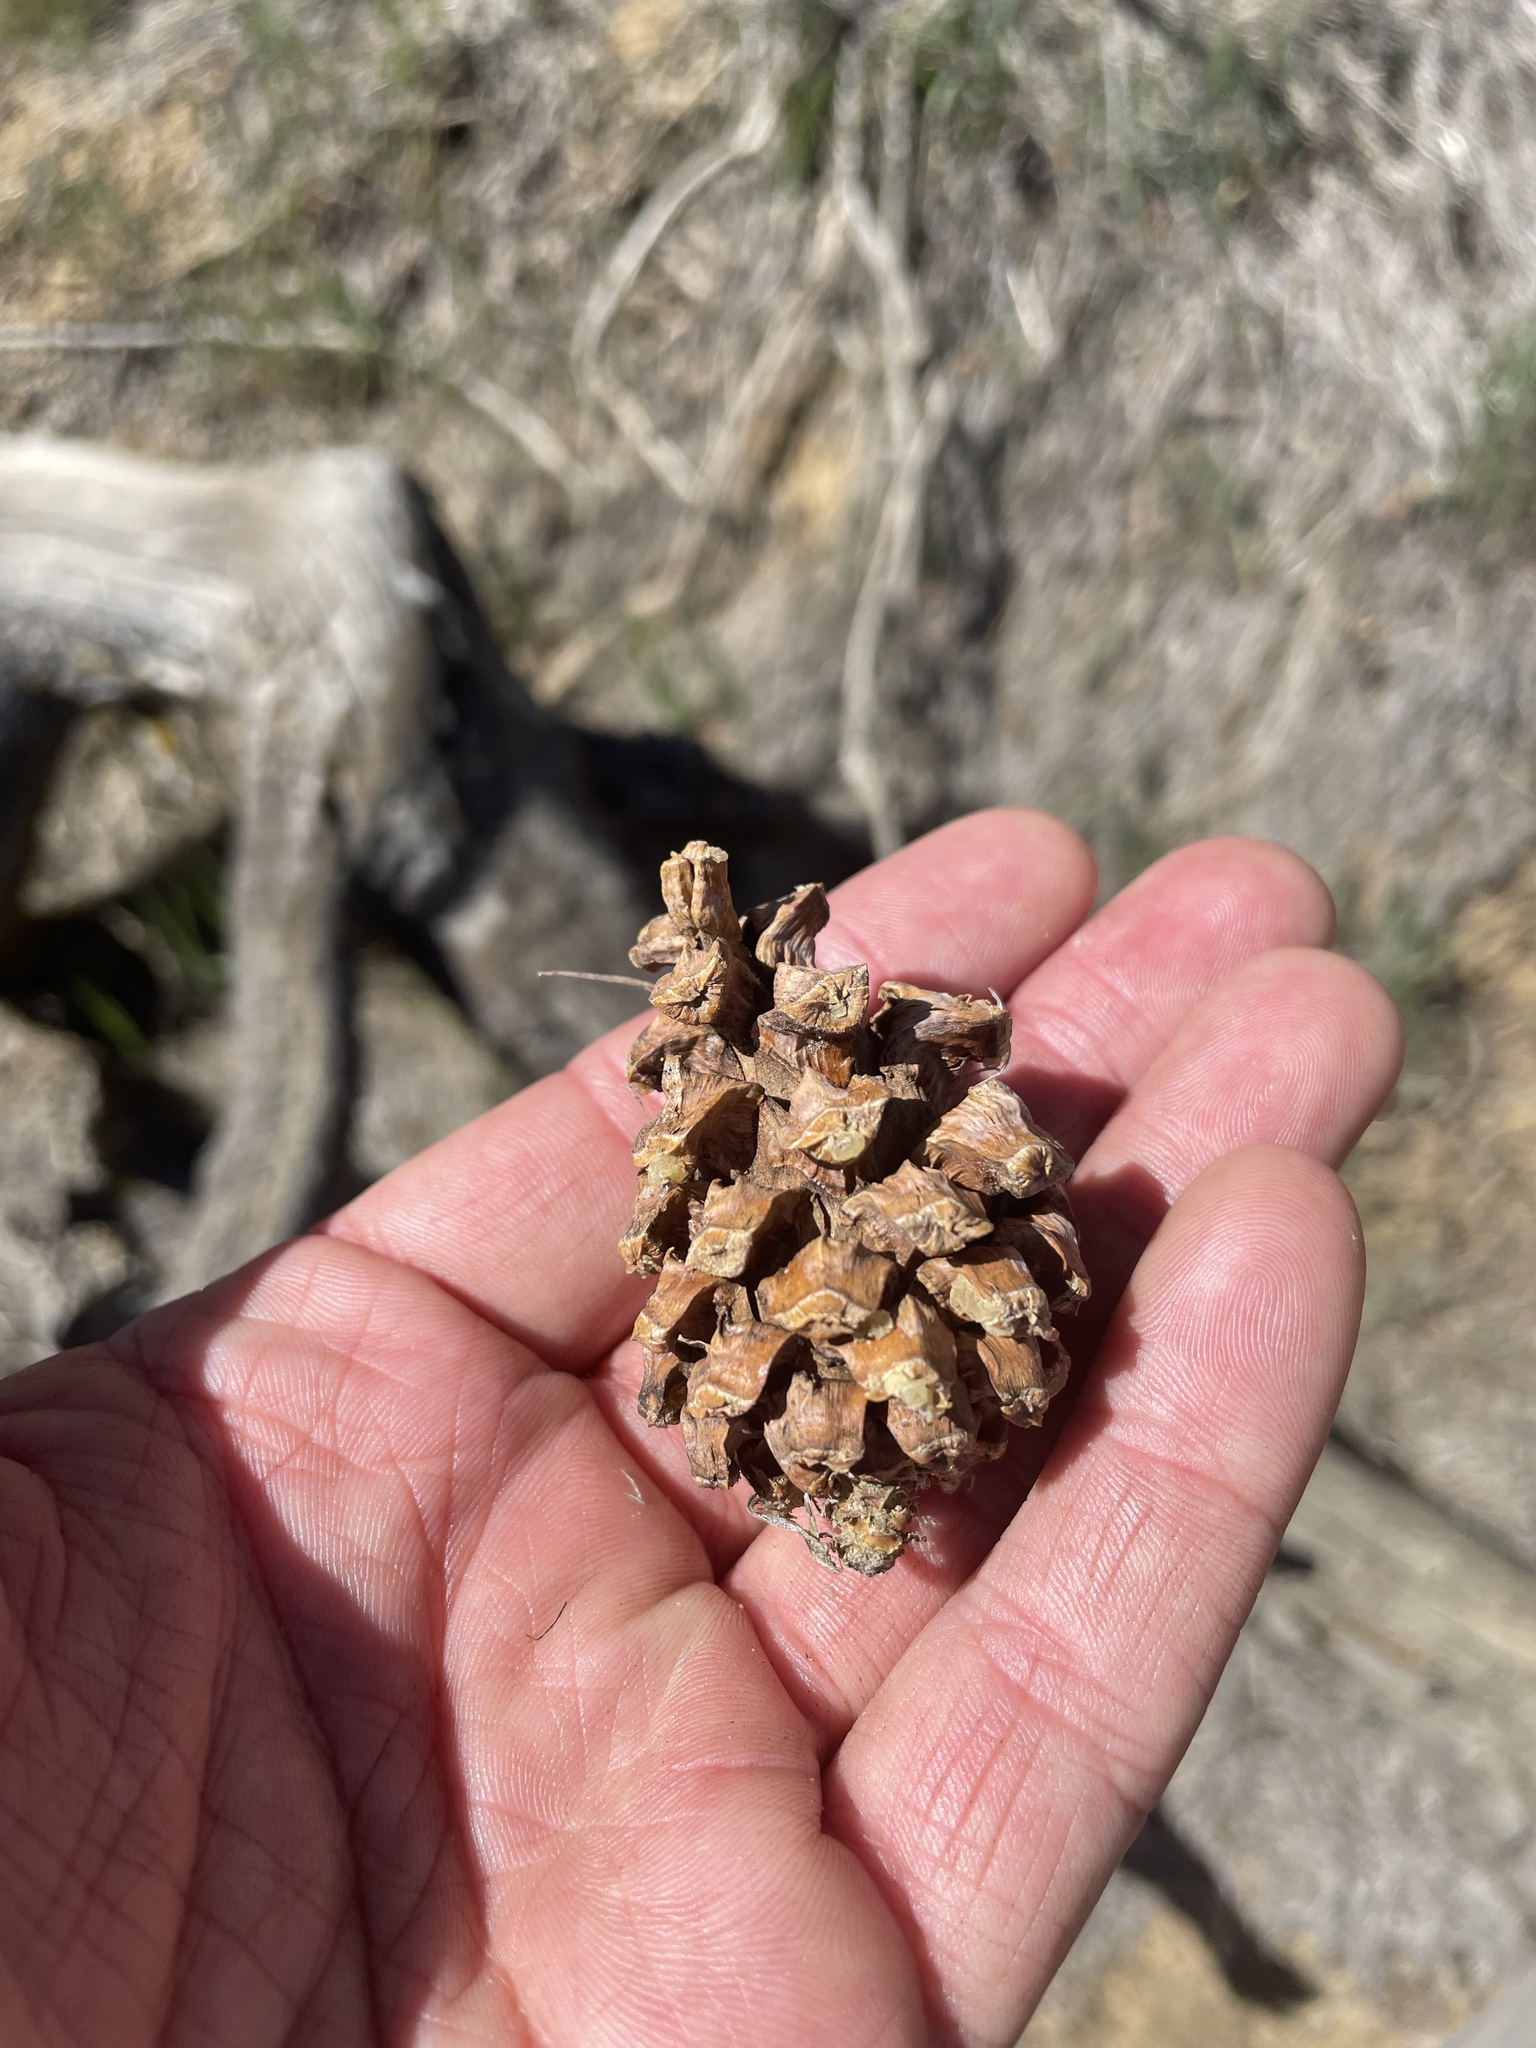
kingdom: Plantae
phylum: Tracheophyta
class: Pinopsida
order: Pinales
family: Pinaceae
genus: Pinus
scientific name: Pinus monophylla
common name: One-leaved nut pine
